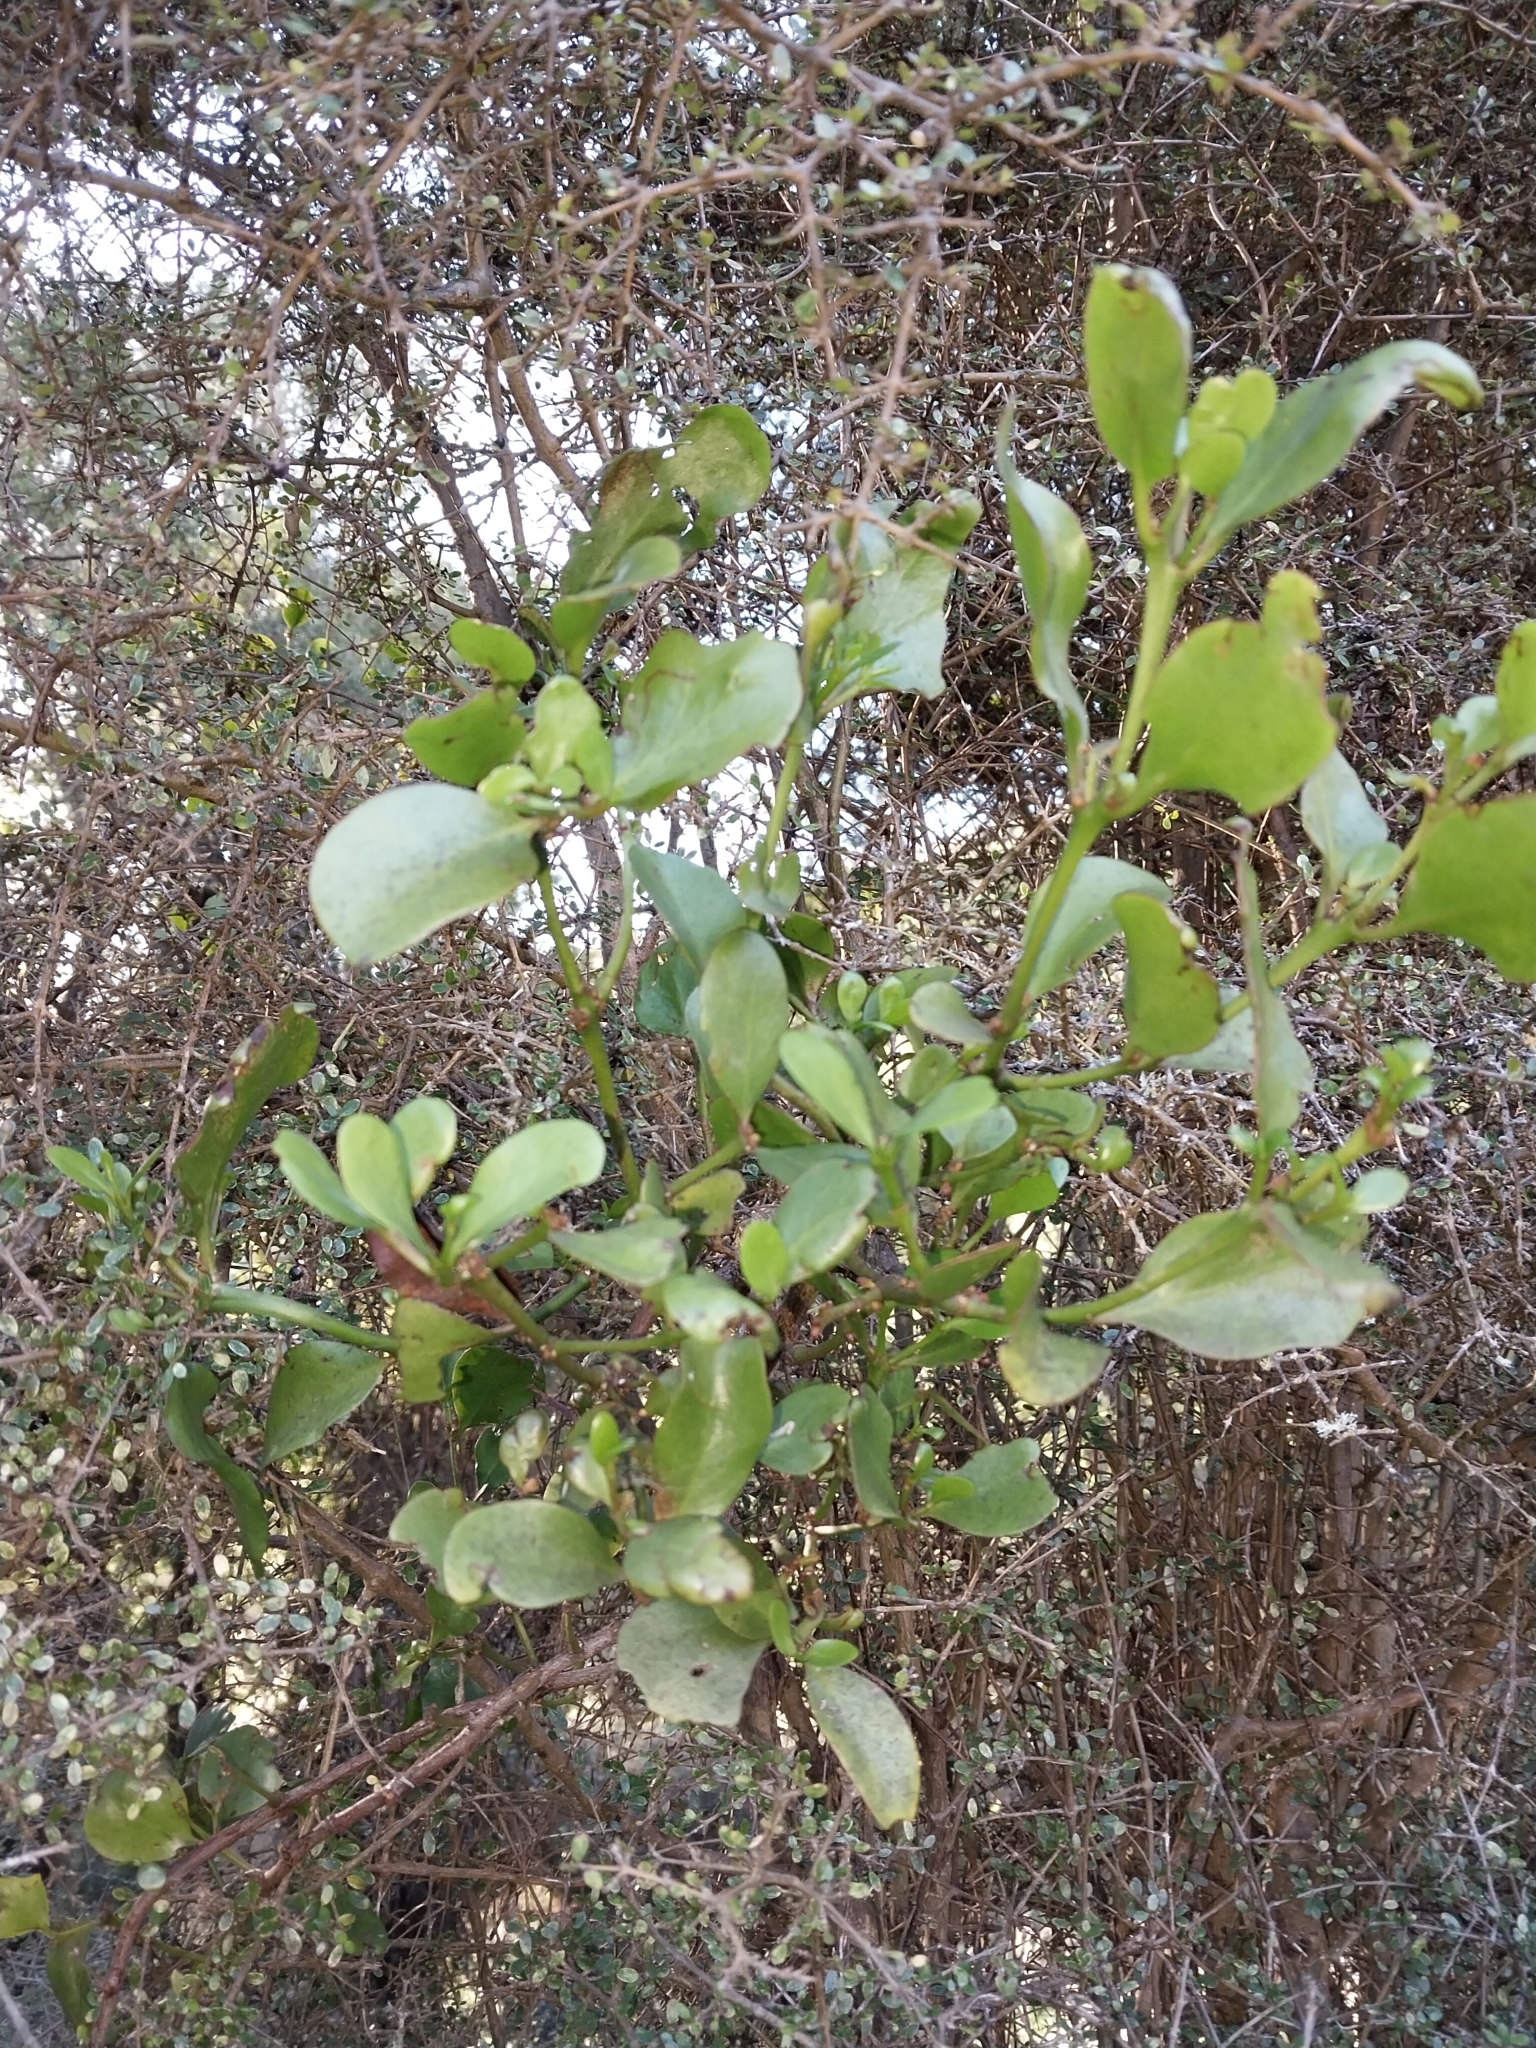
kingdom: Plantae
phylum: Tracheophyta
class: Magnoliopsida
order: Santalales
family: Loranthaceae
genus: Ileostylus
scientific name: Ileostylus micranthus
